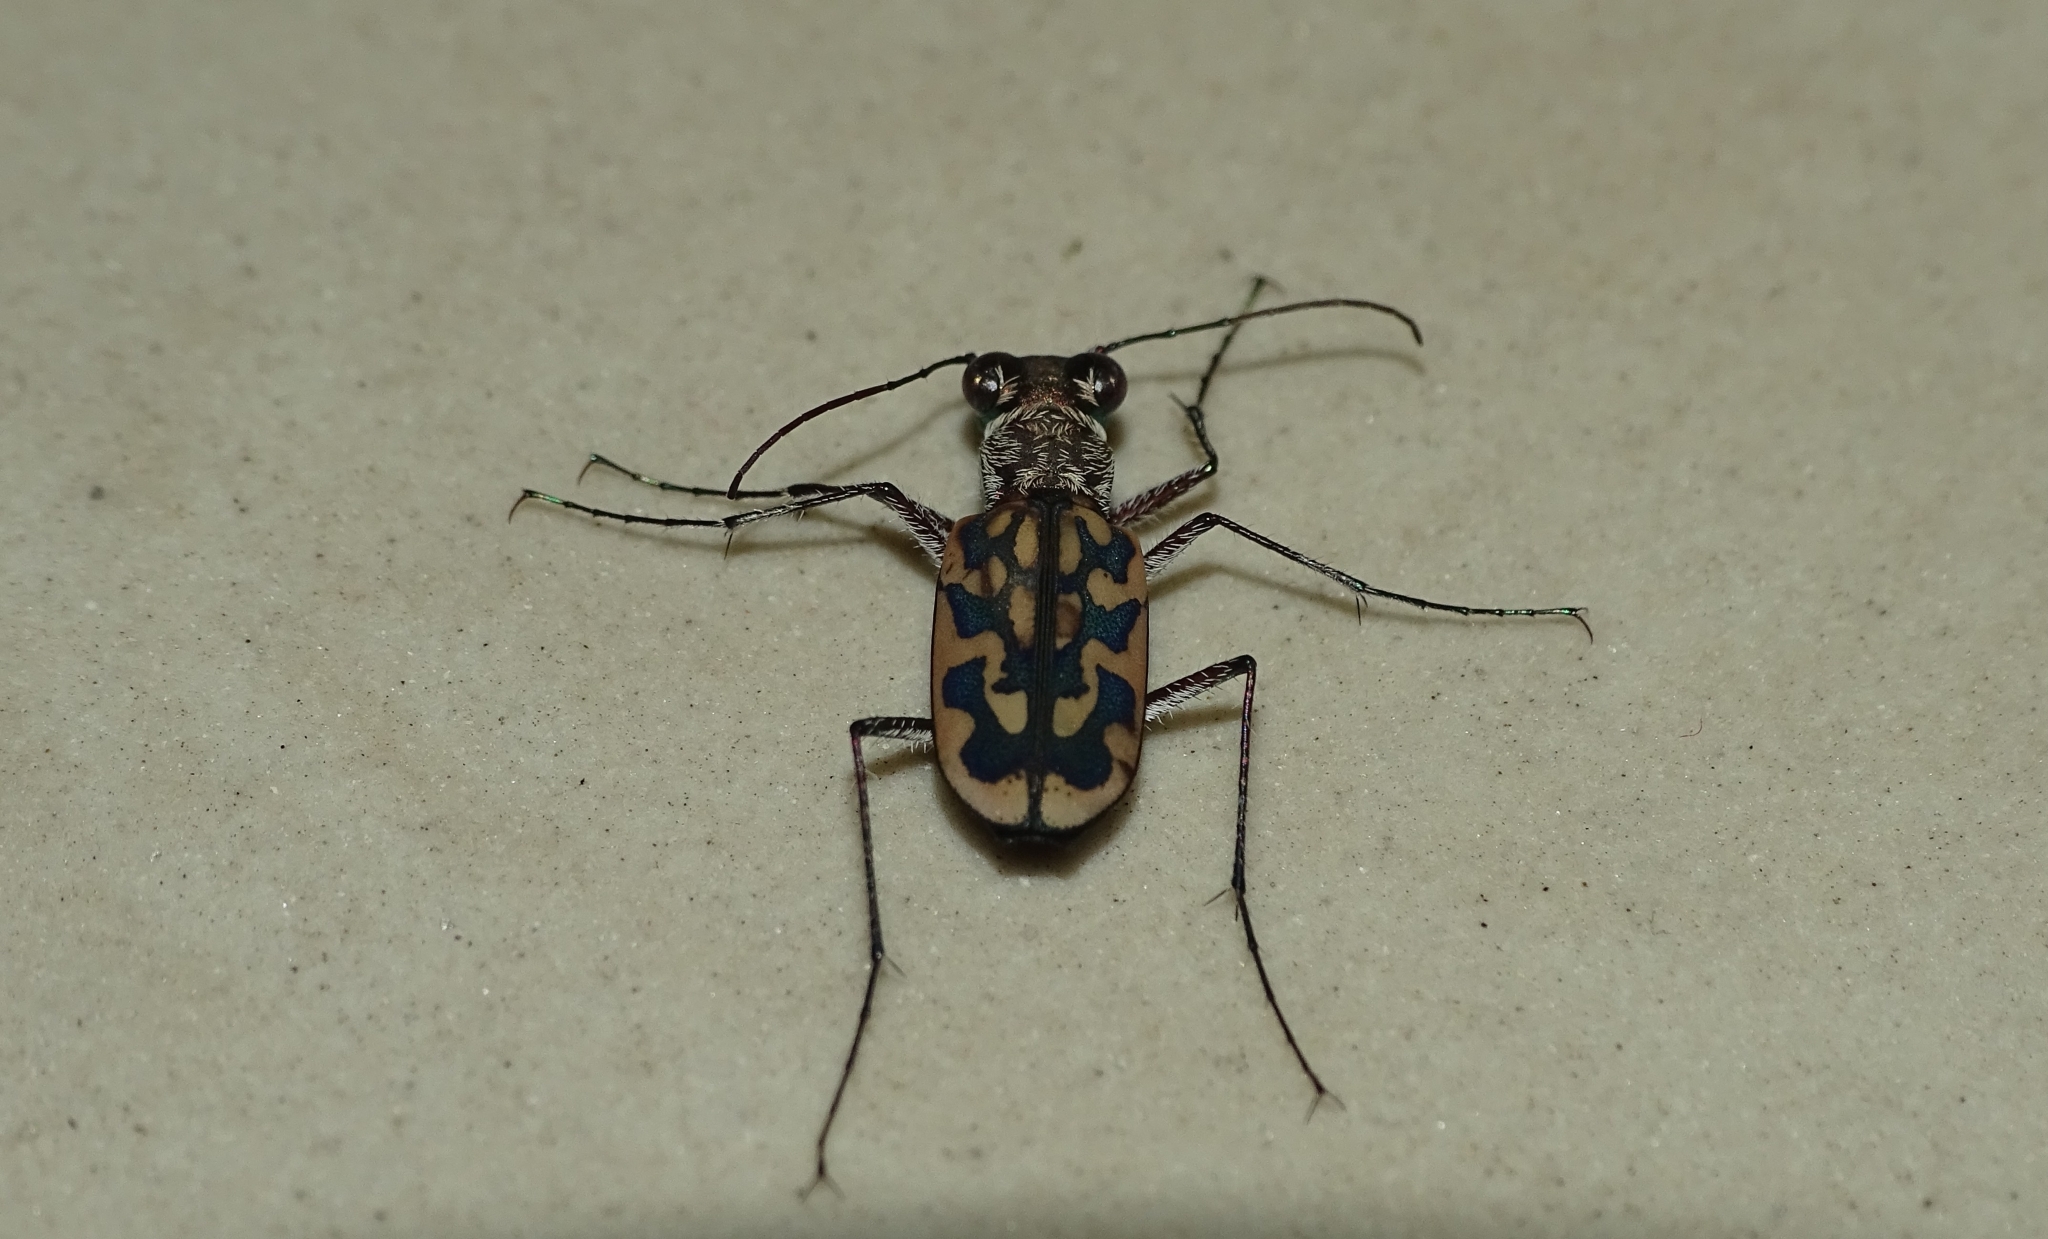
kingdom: Animalia
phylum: Arthropoda
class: Insecta
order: Coleoptera
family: Carabidae
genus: Lophyra
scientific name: Lophyra cancellata
